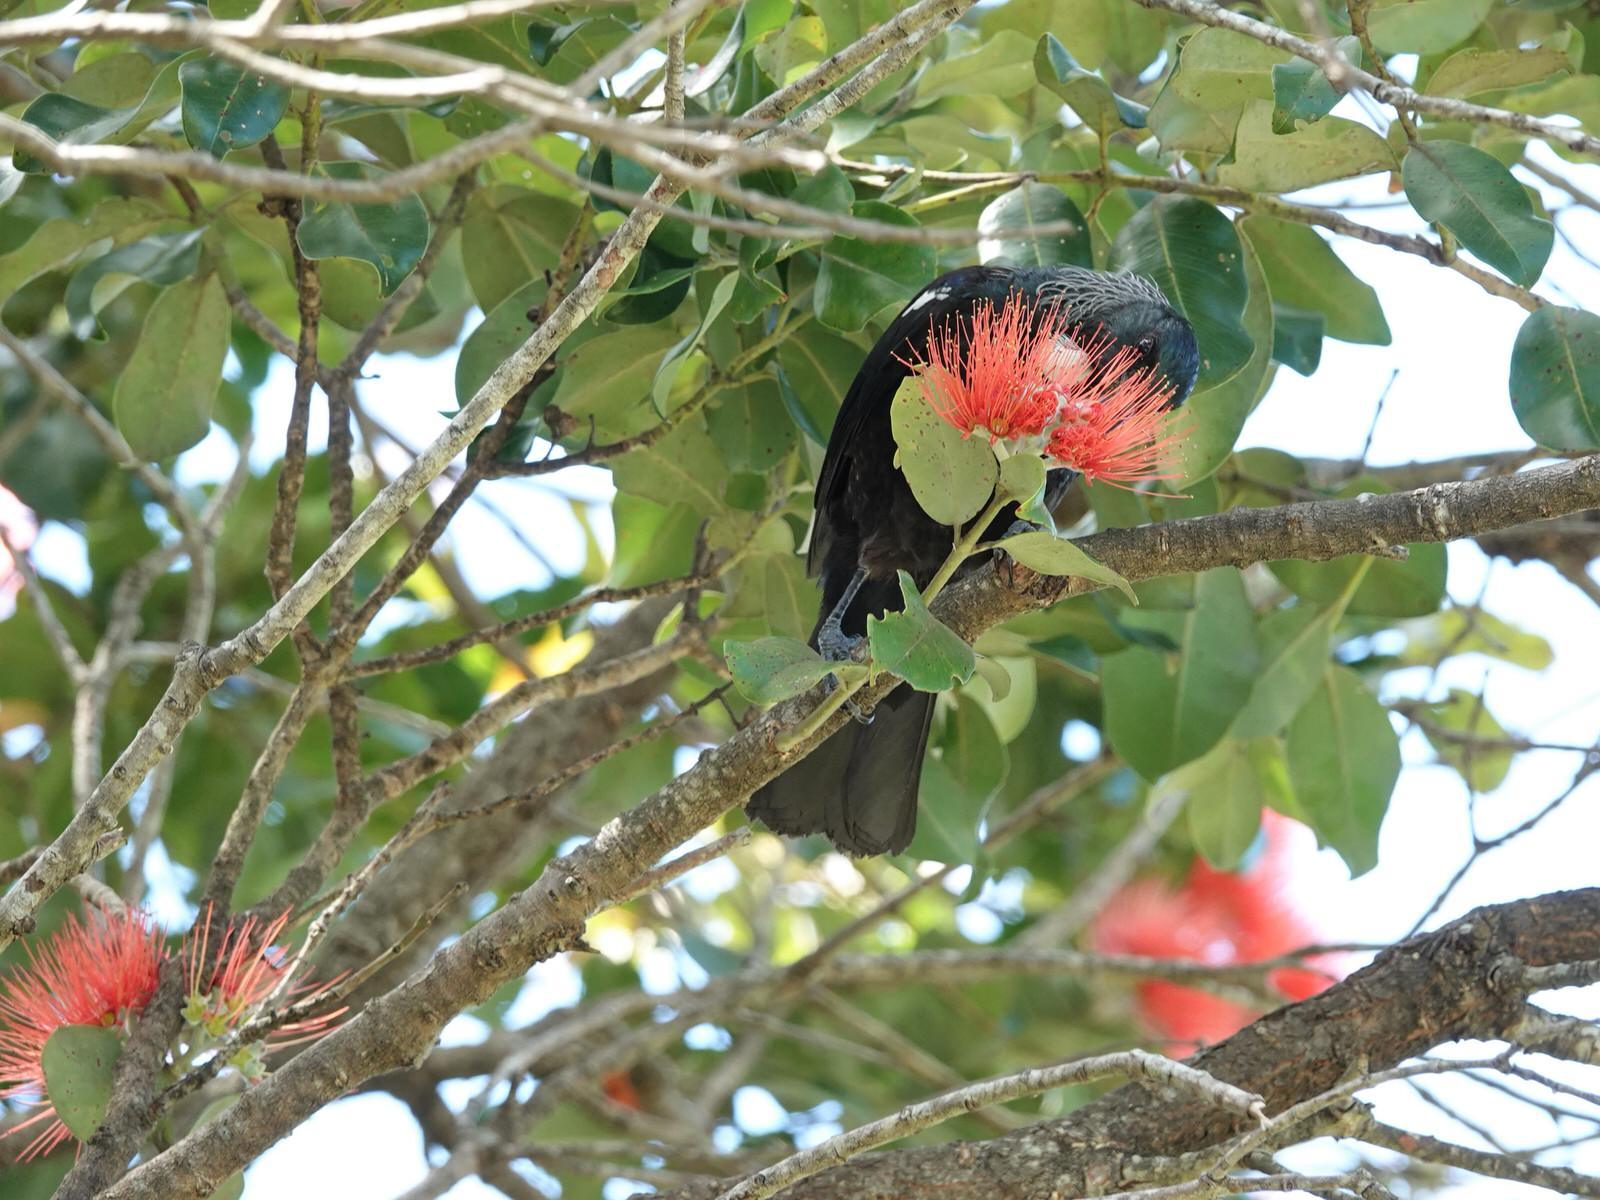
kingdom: Animalia
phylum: Chordata
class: Aves
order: Passeriformes
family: Meliphagidae
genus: Prosthemadera
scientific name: Prosthemadera novaeseelandiae
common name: Tui
